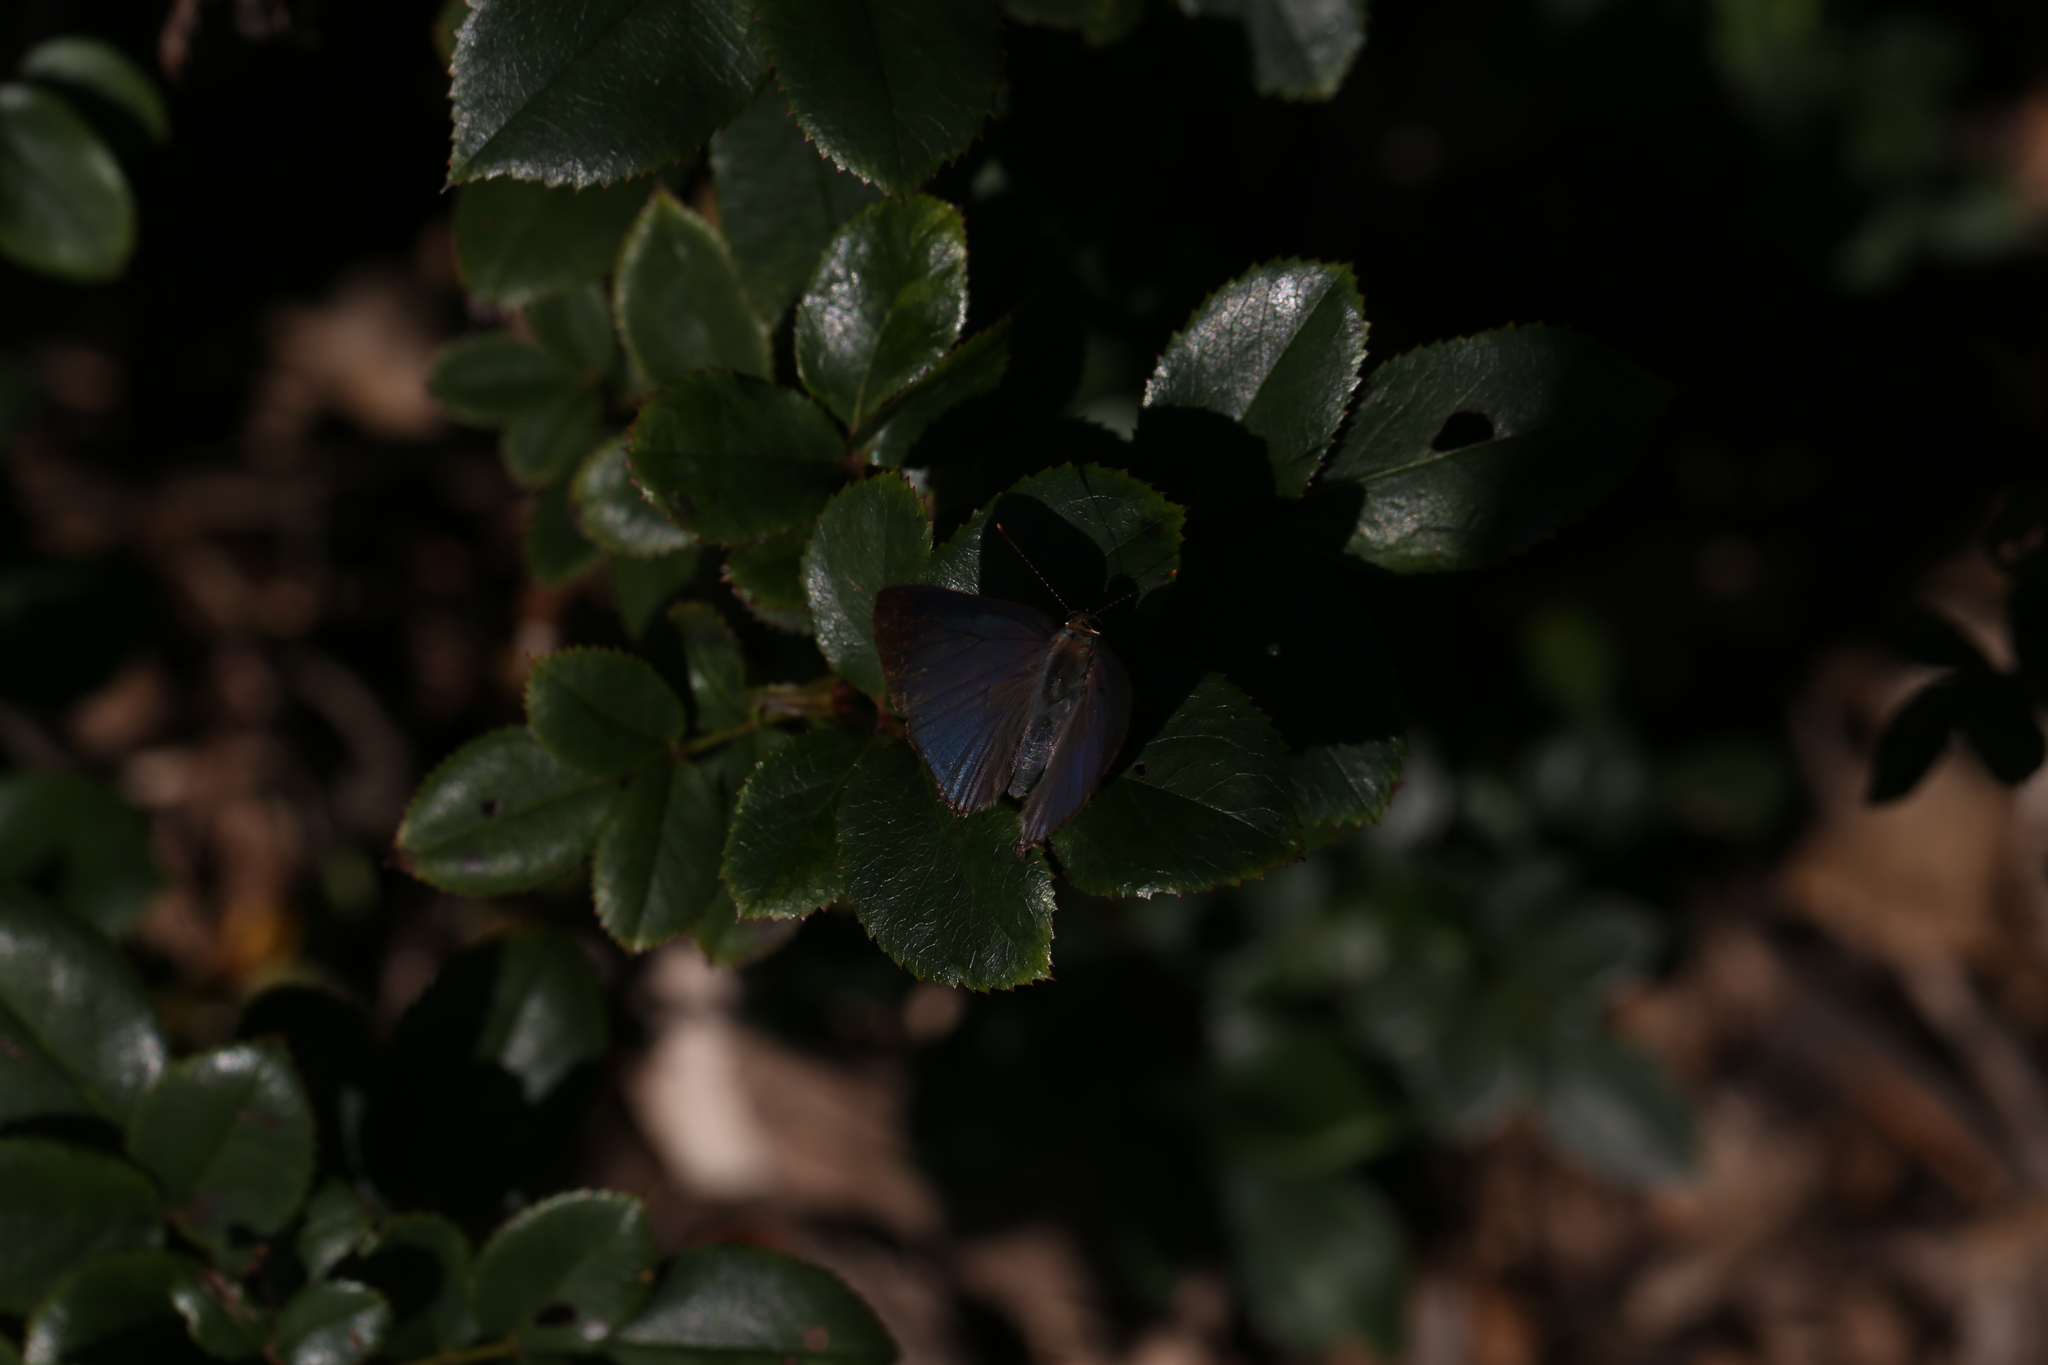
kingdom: Animalia
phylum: Arthropoda
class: Insecta
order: Lepidoptera
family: Lycaenidae
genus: Rapala
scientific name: Rapala varuna
